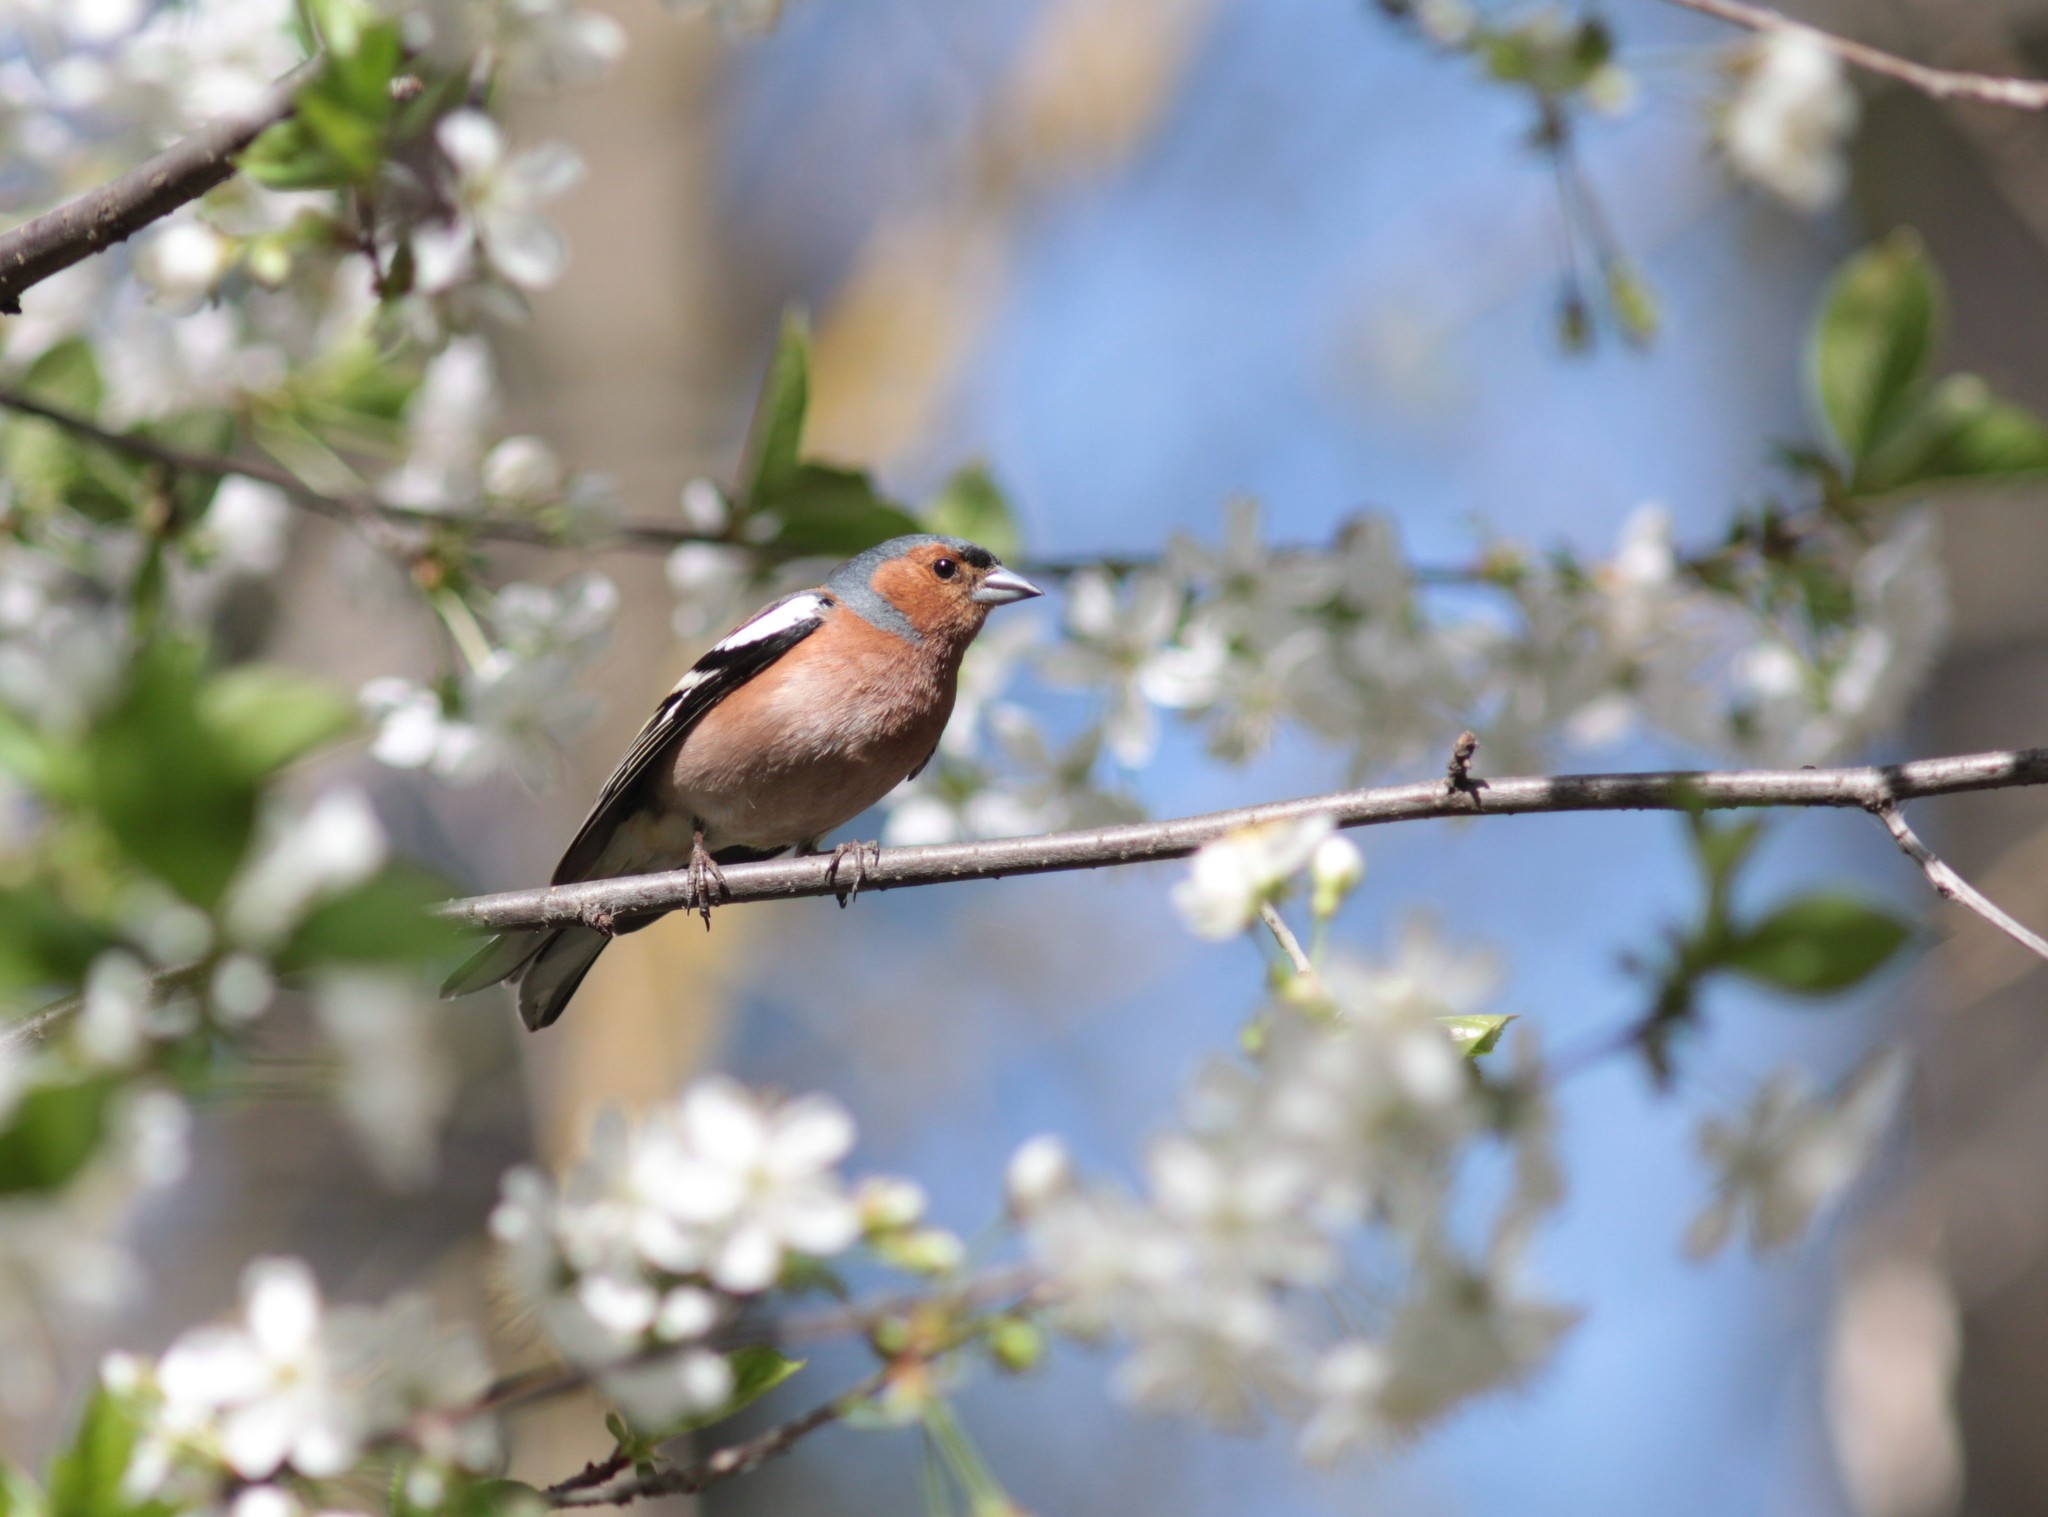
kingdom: Animalia
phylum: Chordata
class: Aves
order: Passeriformes
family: Fringillidae
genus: Fringilla
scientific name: Fringilla coelebs
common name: Common chaffinch
